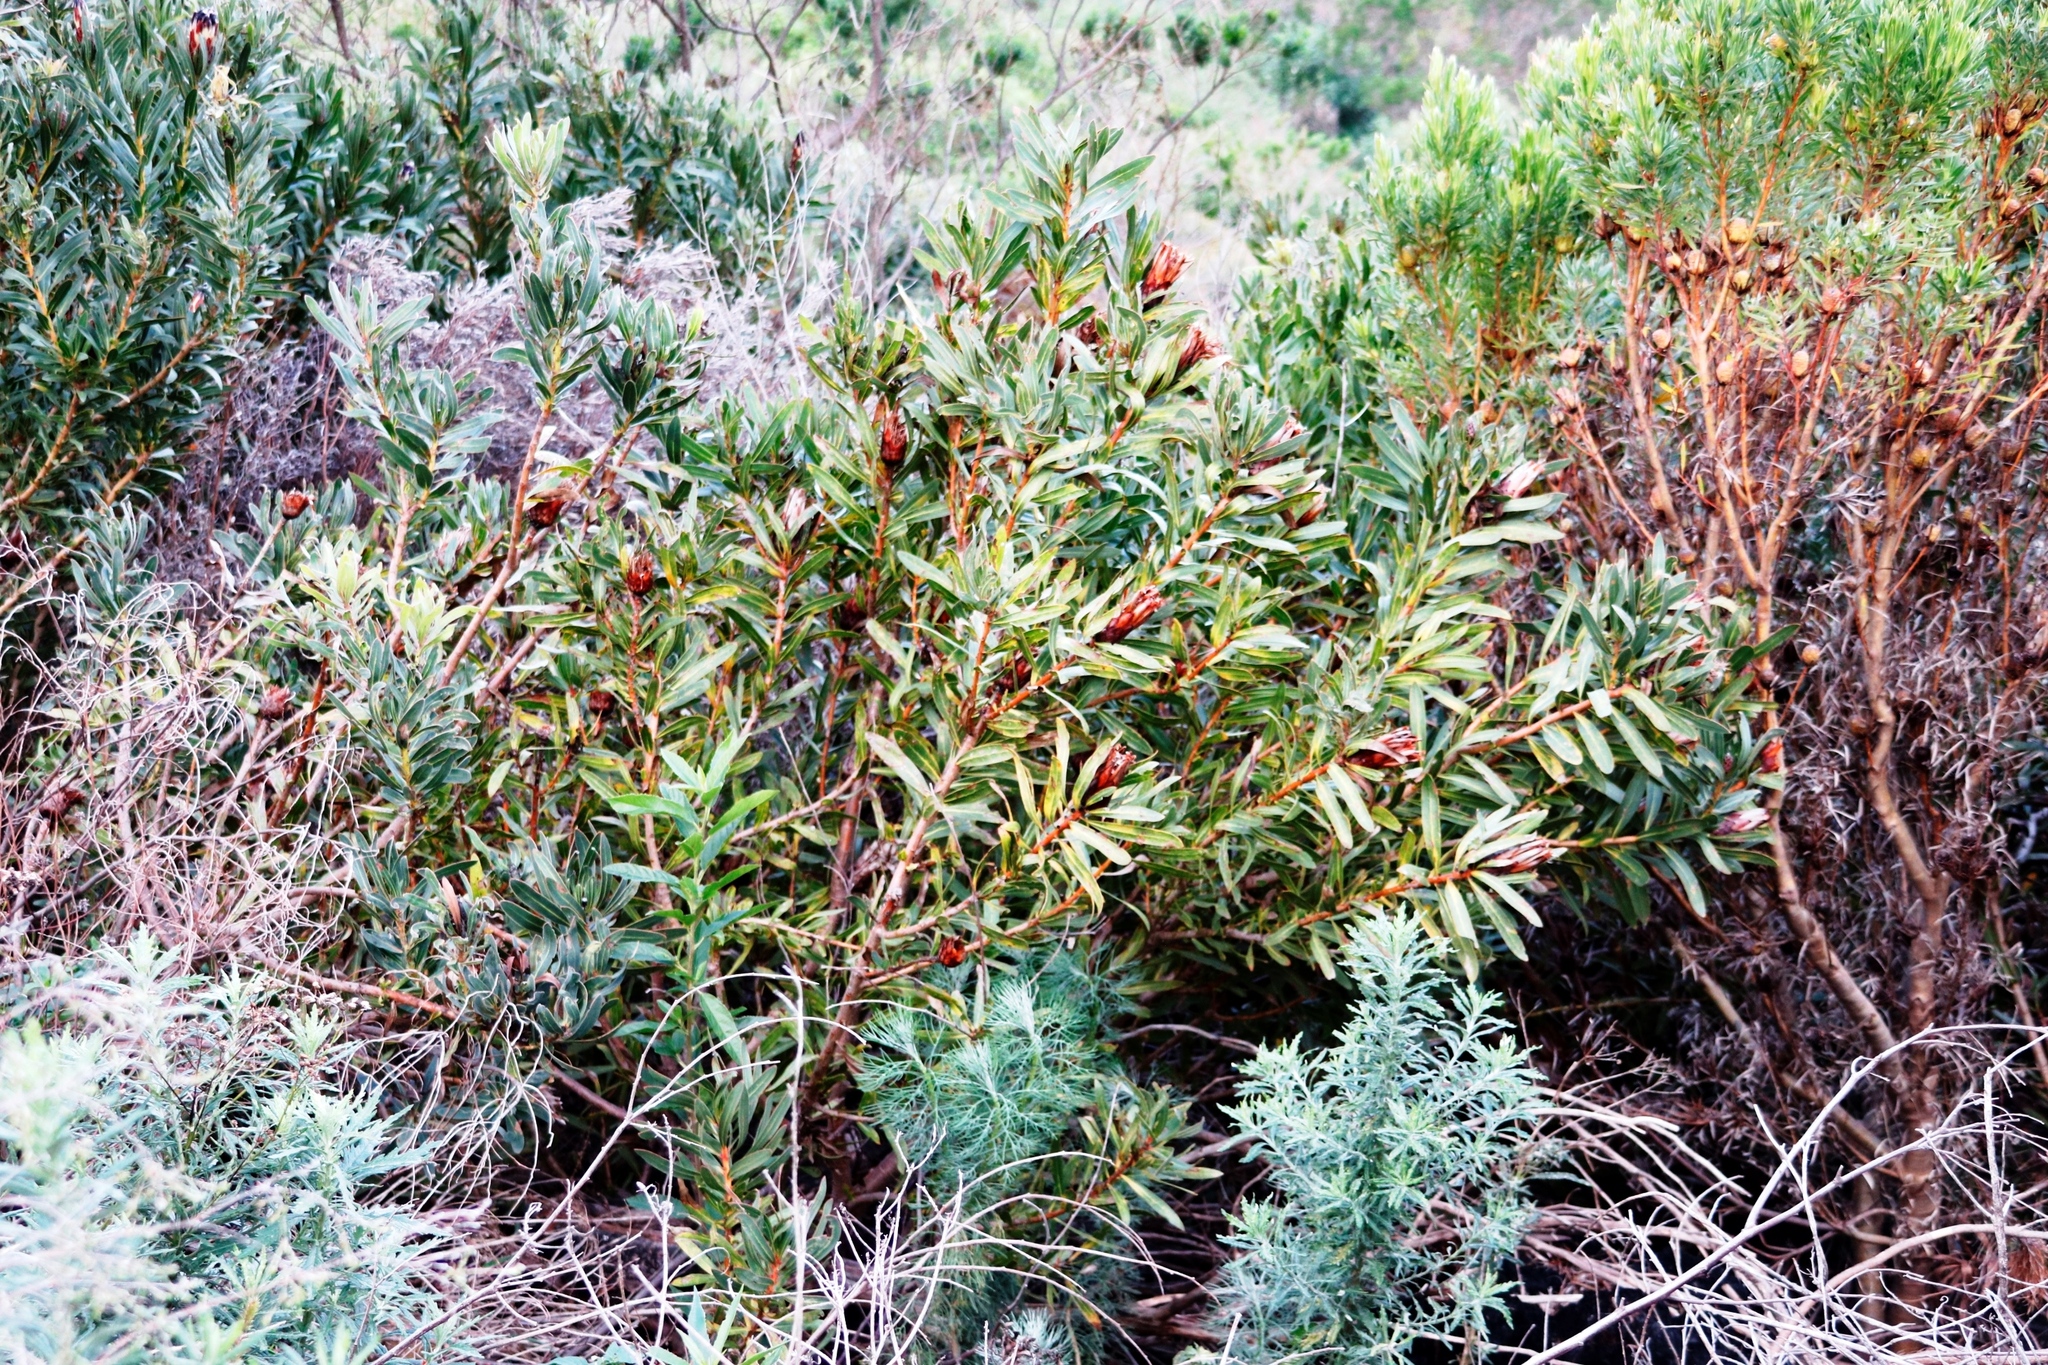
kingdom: Plantae
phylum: Tracheophyta
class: Magnoliopsida
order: Proteales
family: Proteaceae
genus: Protea
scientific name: Protea lepidocarpodendron
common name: Black-bearded protea
